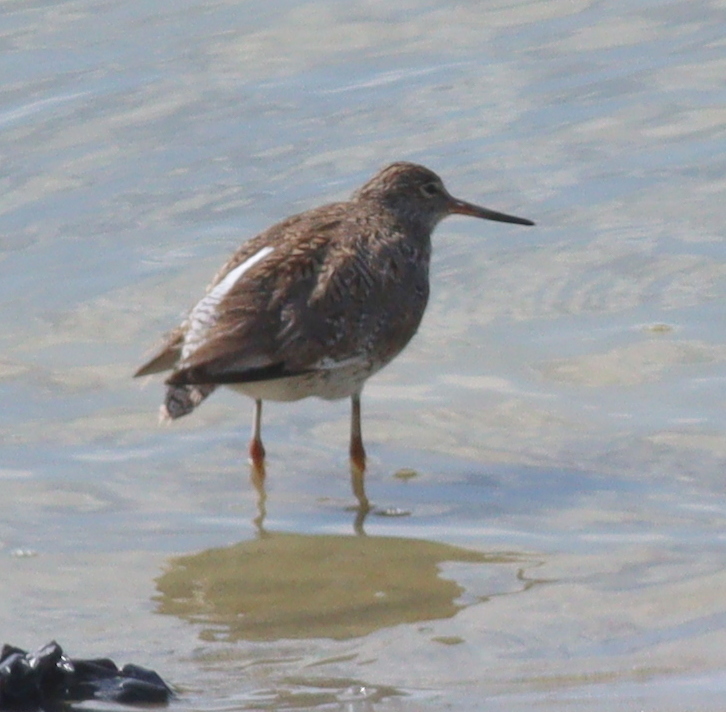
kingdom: Animalia
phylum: Chordata
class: Aves
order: Charadriiformes
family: Scolopacidae
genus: Tringa
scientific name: Tringa totanus
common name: Common redshank
